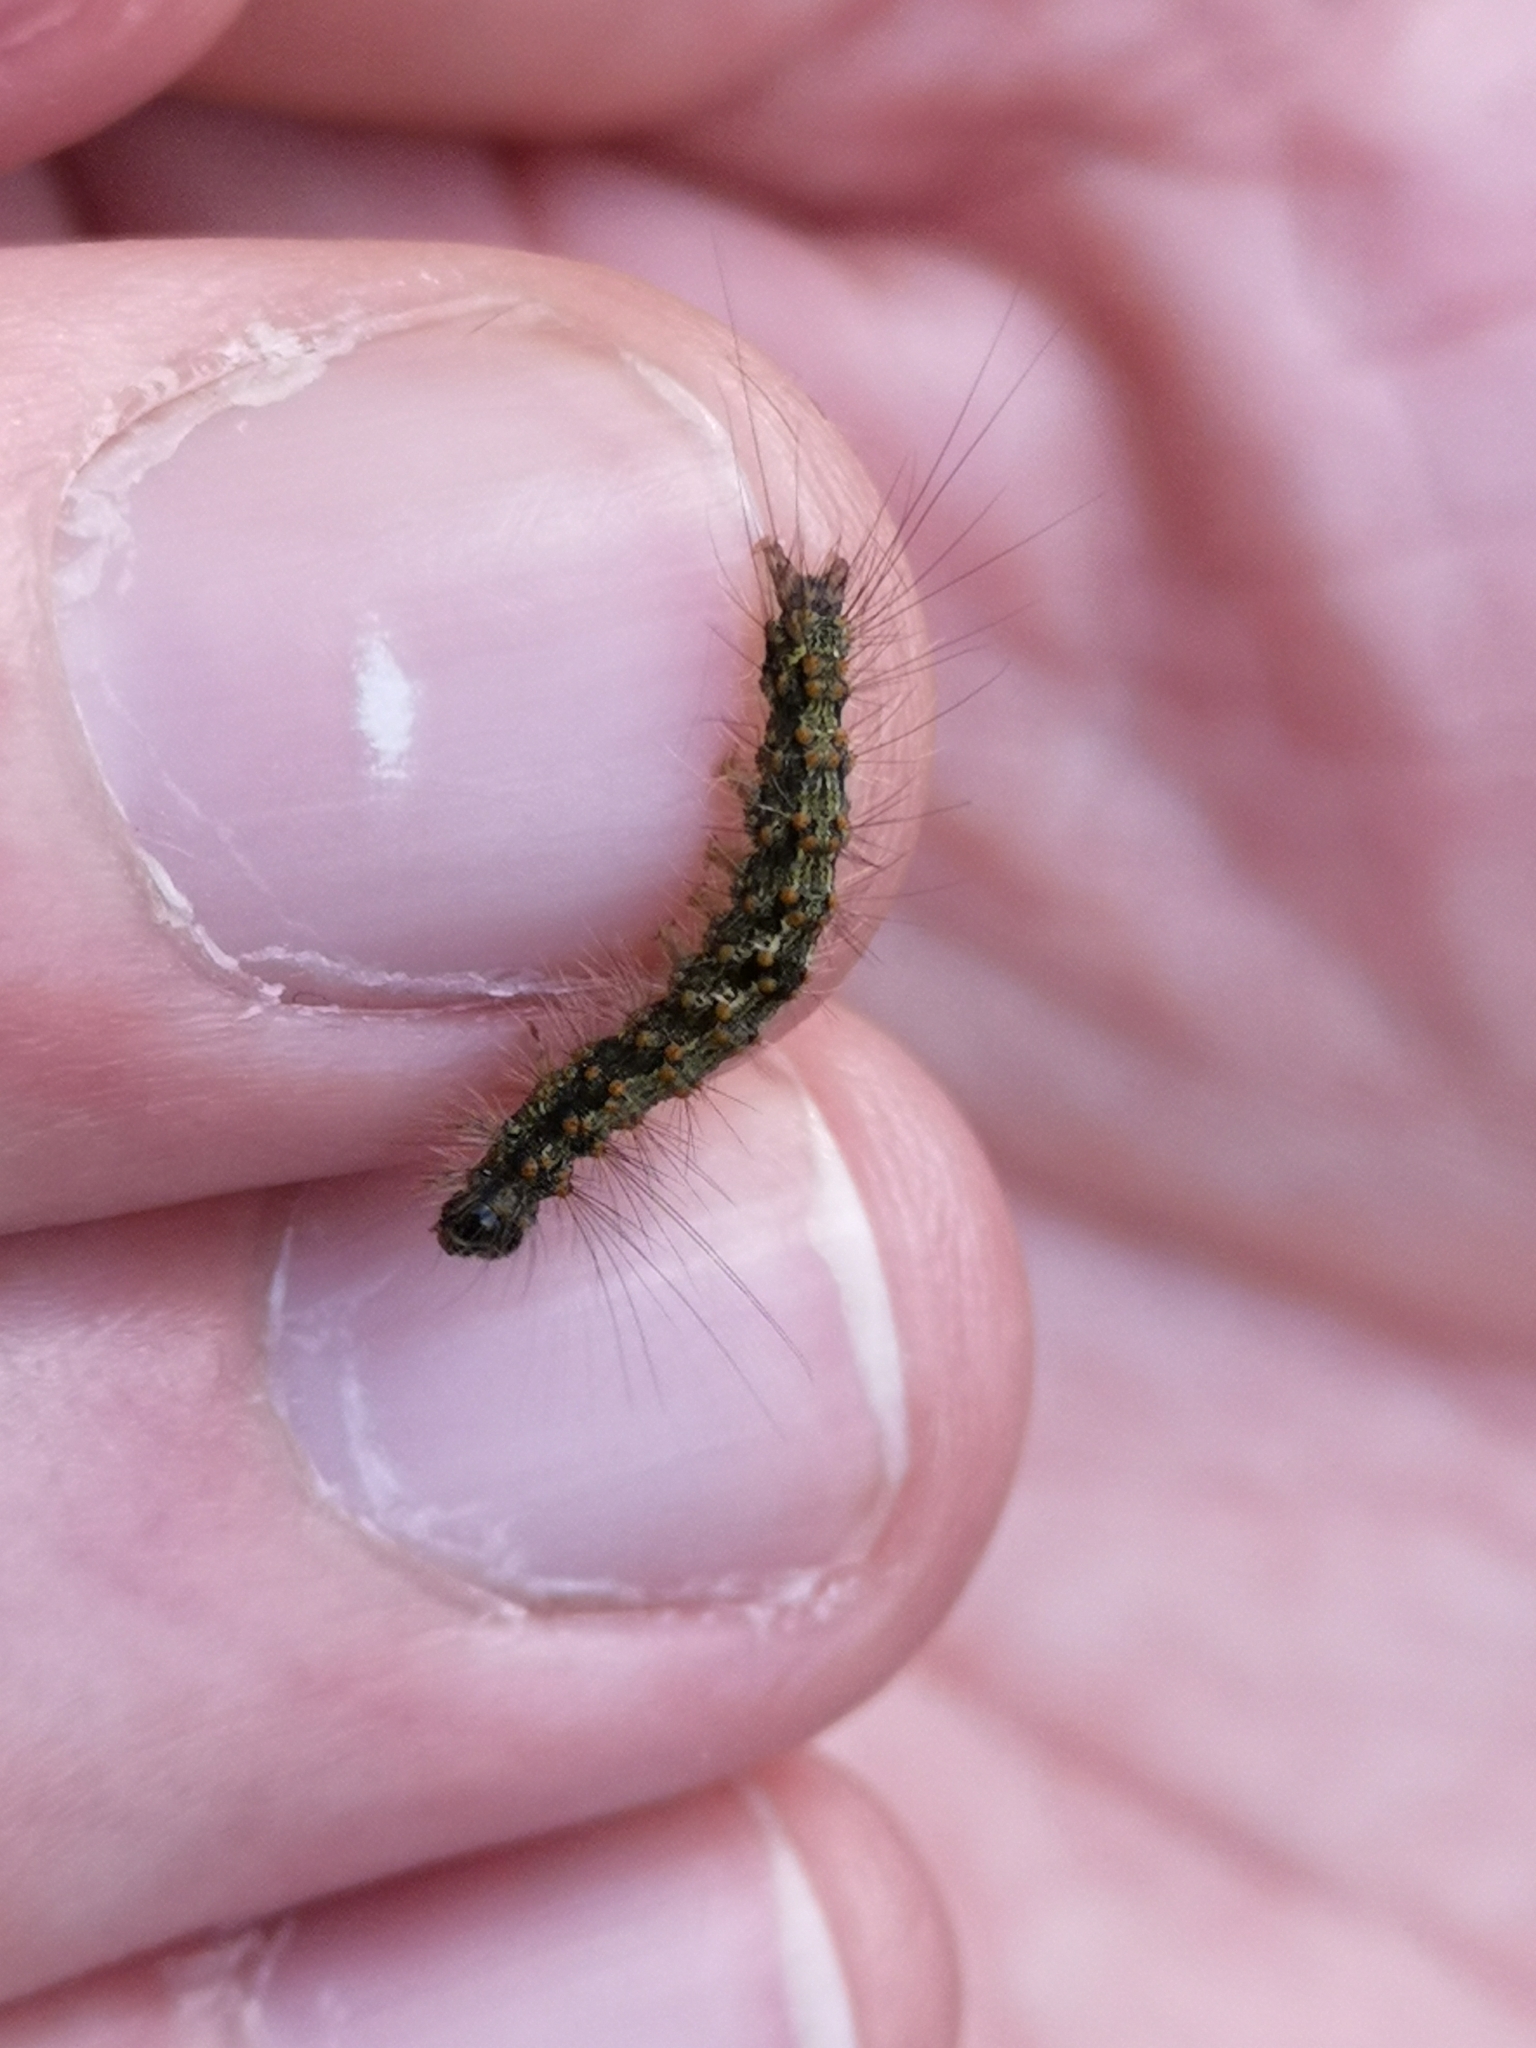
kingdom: Animalia
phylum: Arthropoda
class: Insecta
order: Lepidoptera
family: Erebidae
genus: Atolmis
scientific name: Atolmis rubricollis
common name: Red-necked footman
